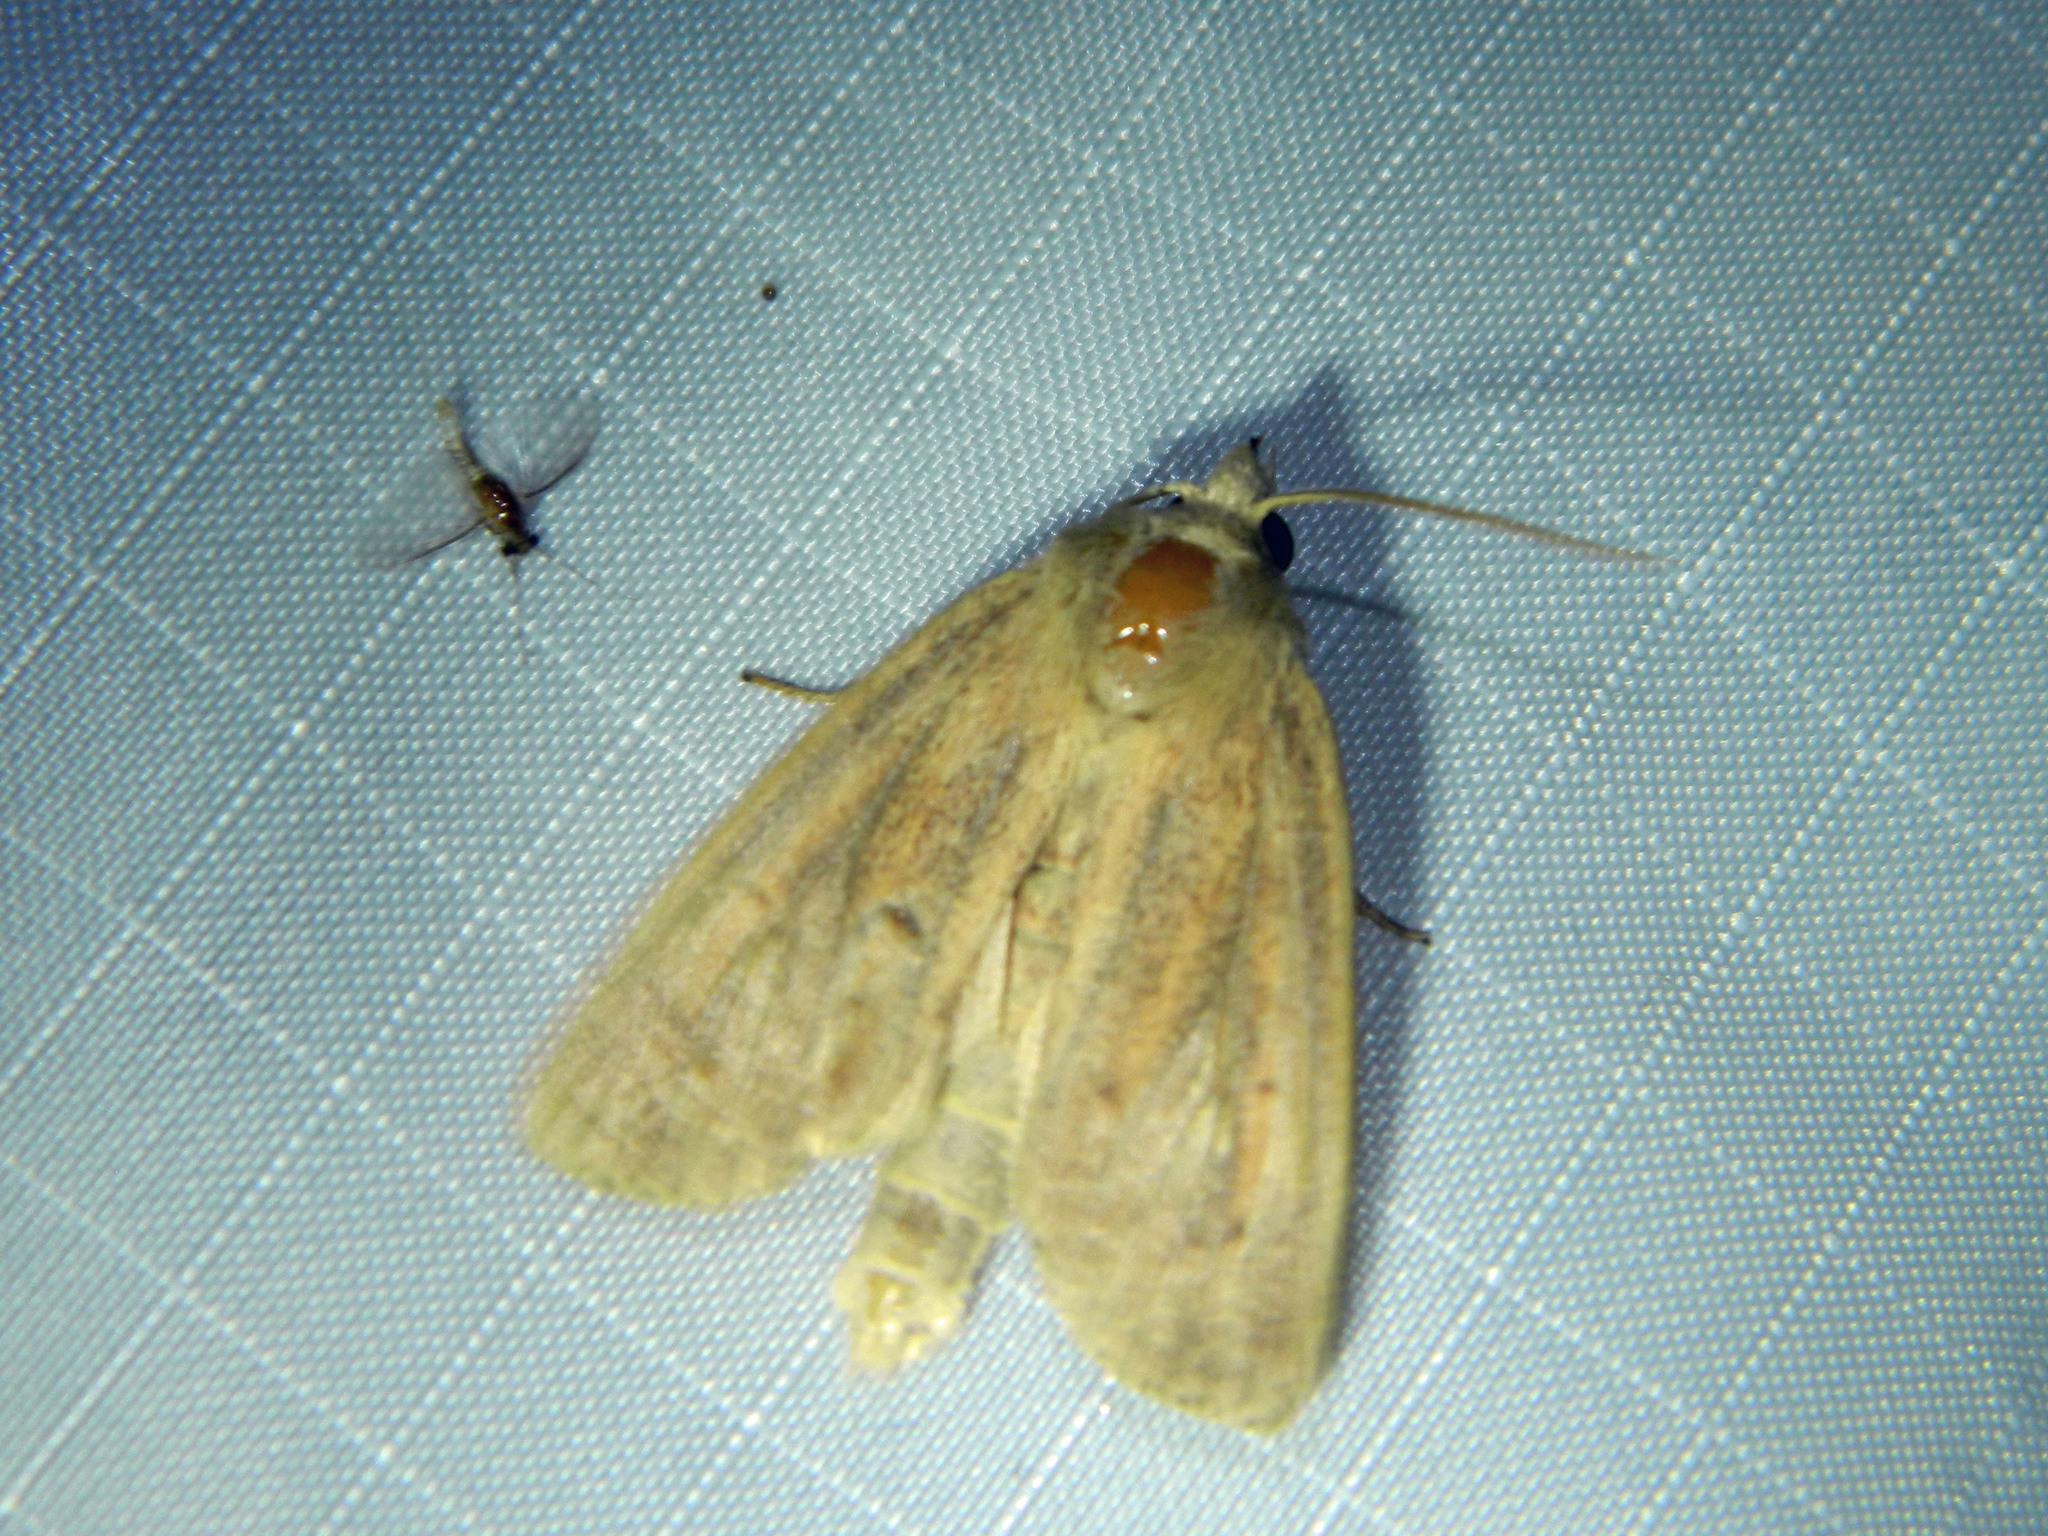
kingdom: Animalia
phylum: Arthropoda
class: Insecta
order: Lepidoptera
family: Noctuidae
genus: Globia
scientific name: Globia oblonga
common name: Oblong sedge borer moth
